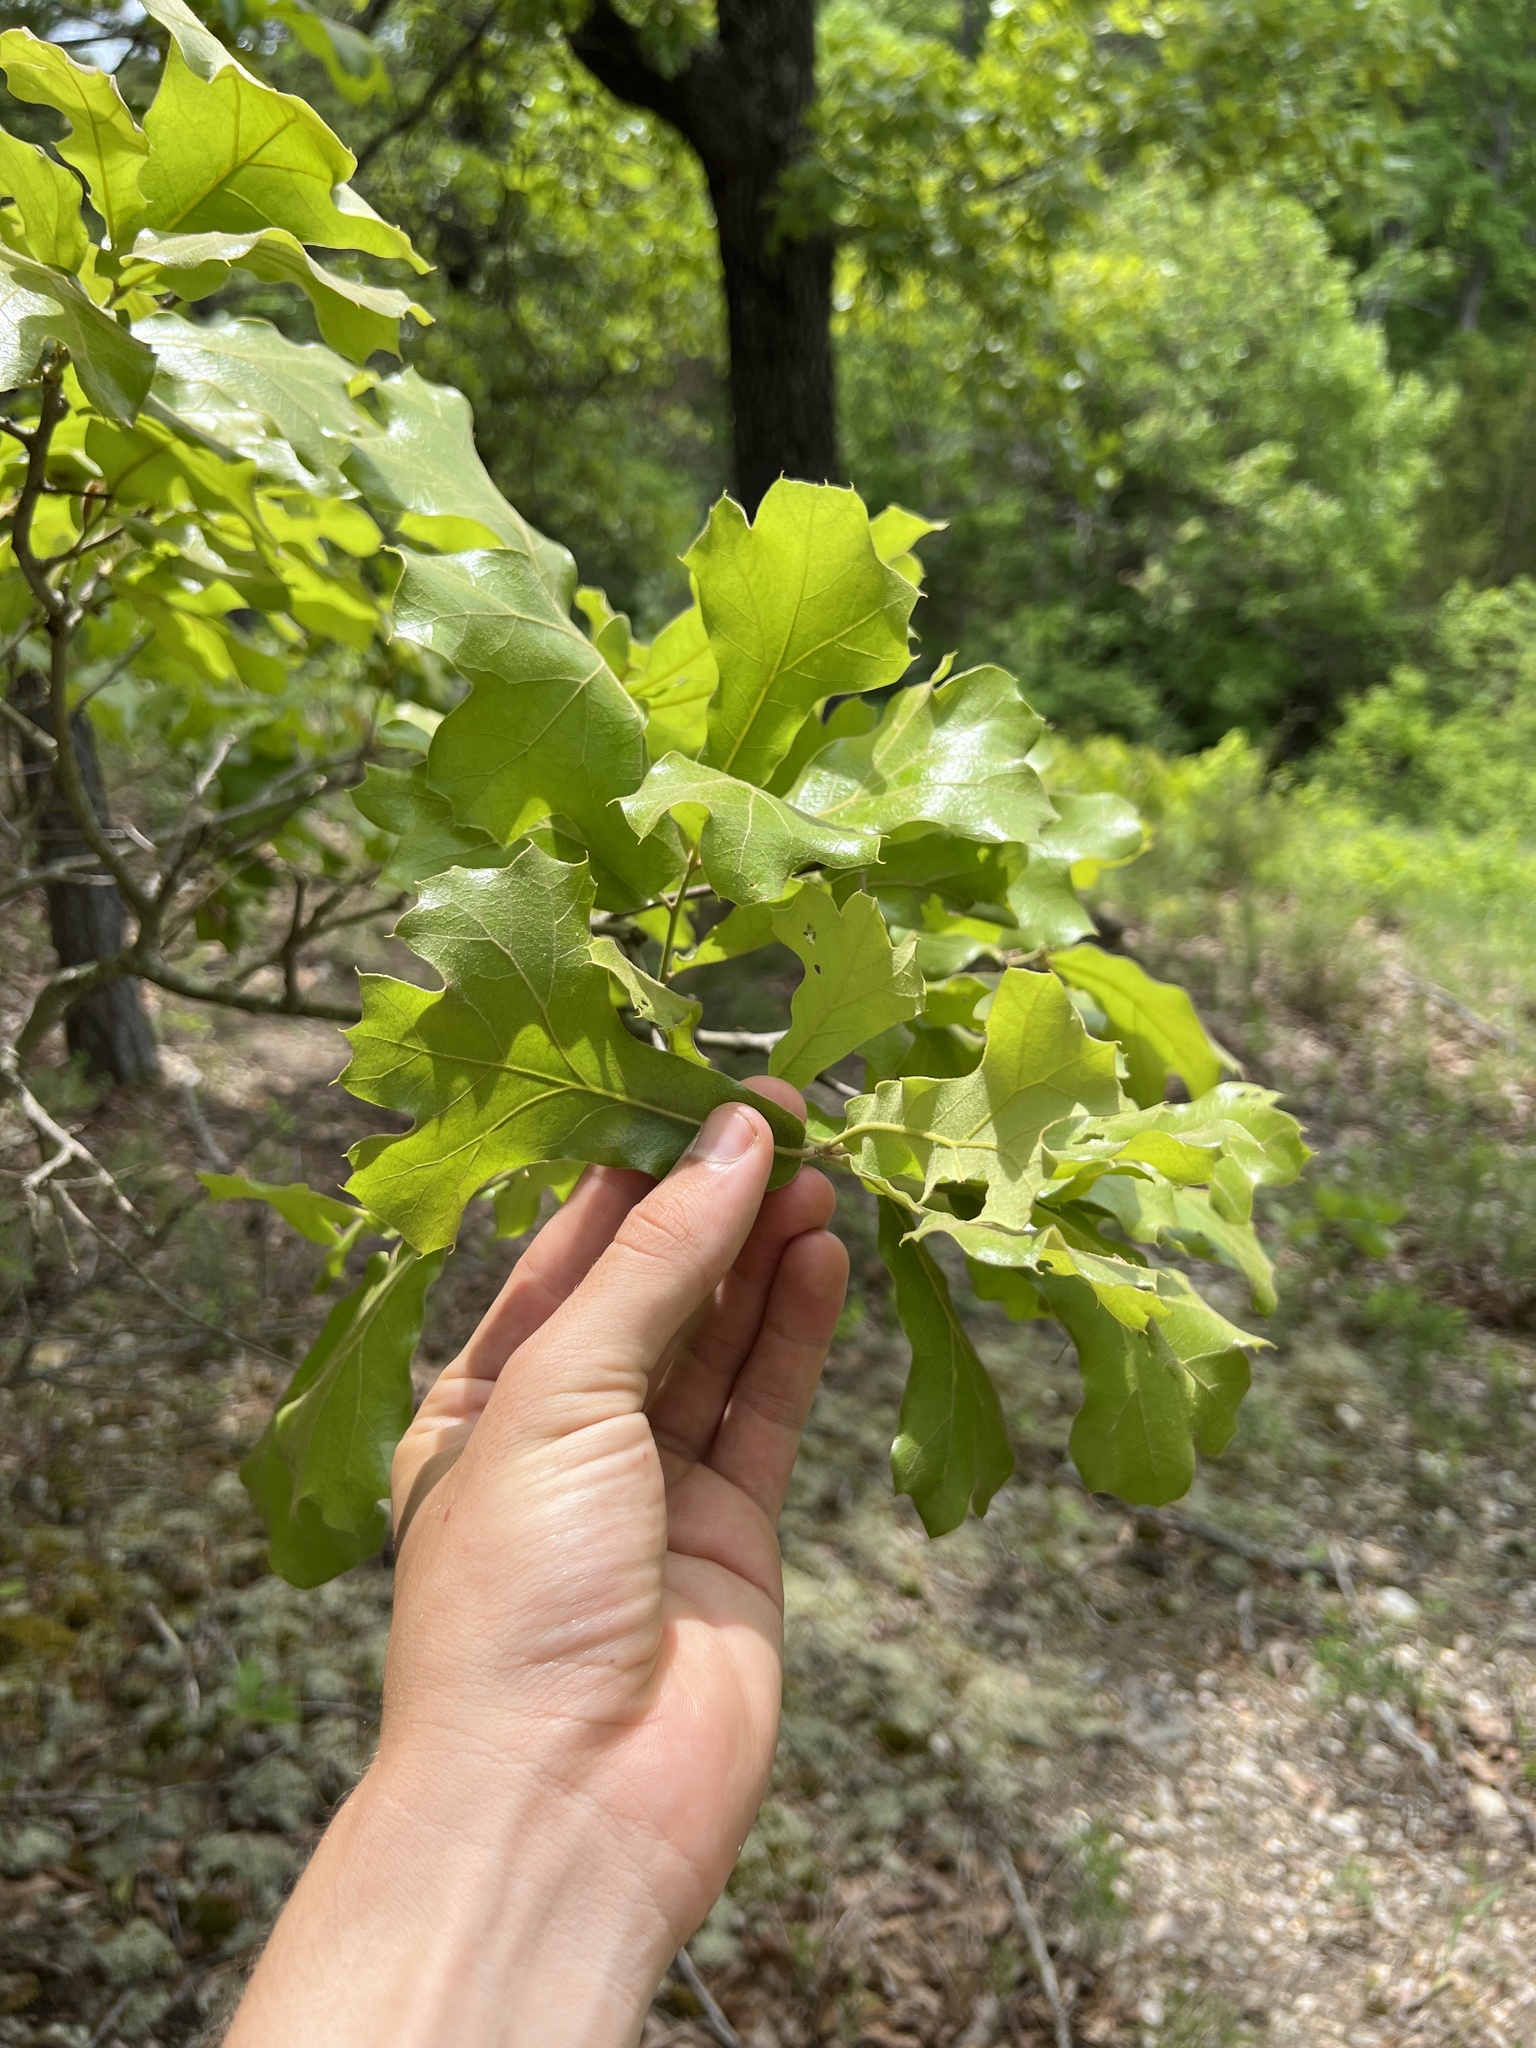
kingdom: Plantae
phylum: Tracheophyta
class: Magnoliopsida
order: Fagales
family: Fagaceae
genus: Quercus
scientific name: Quercus marilandica
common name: Blackjack oak
